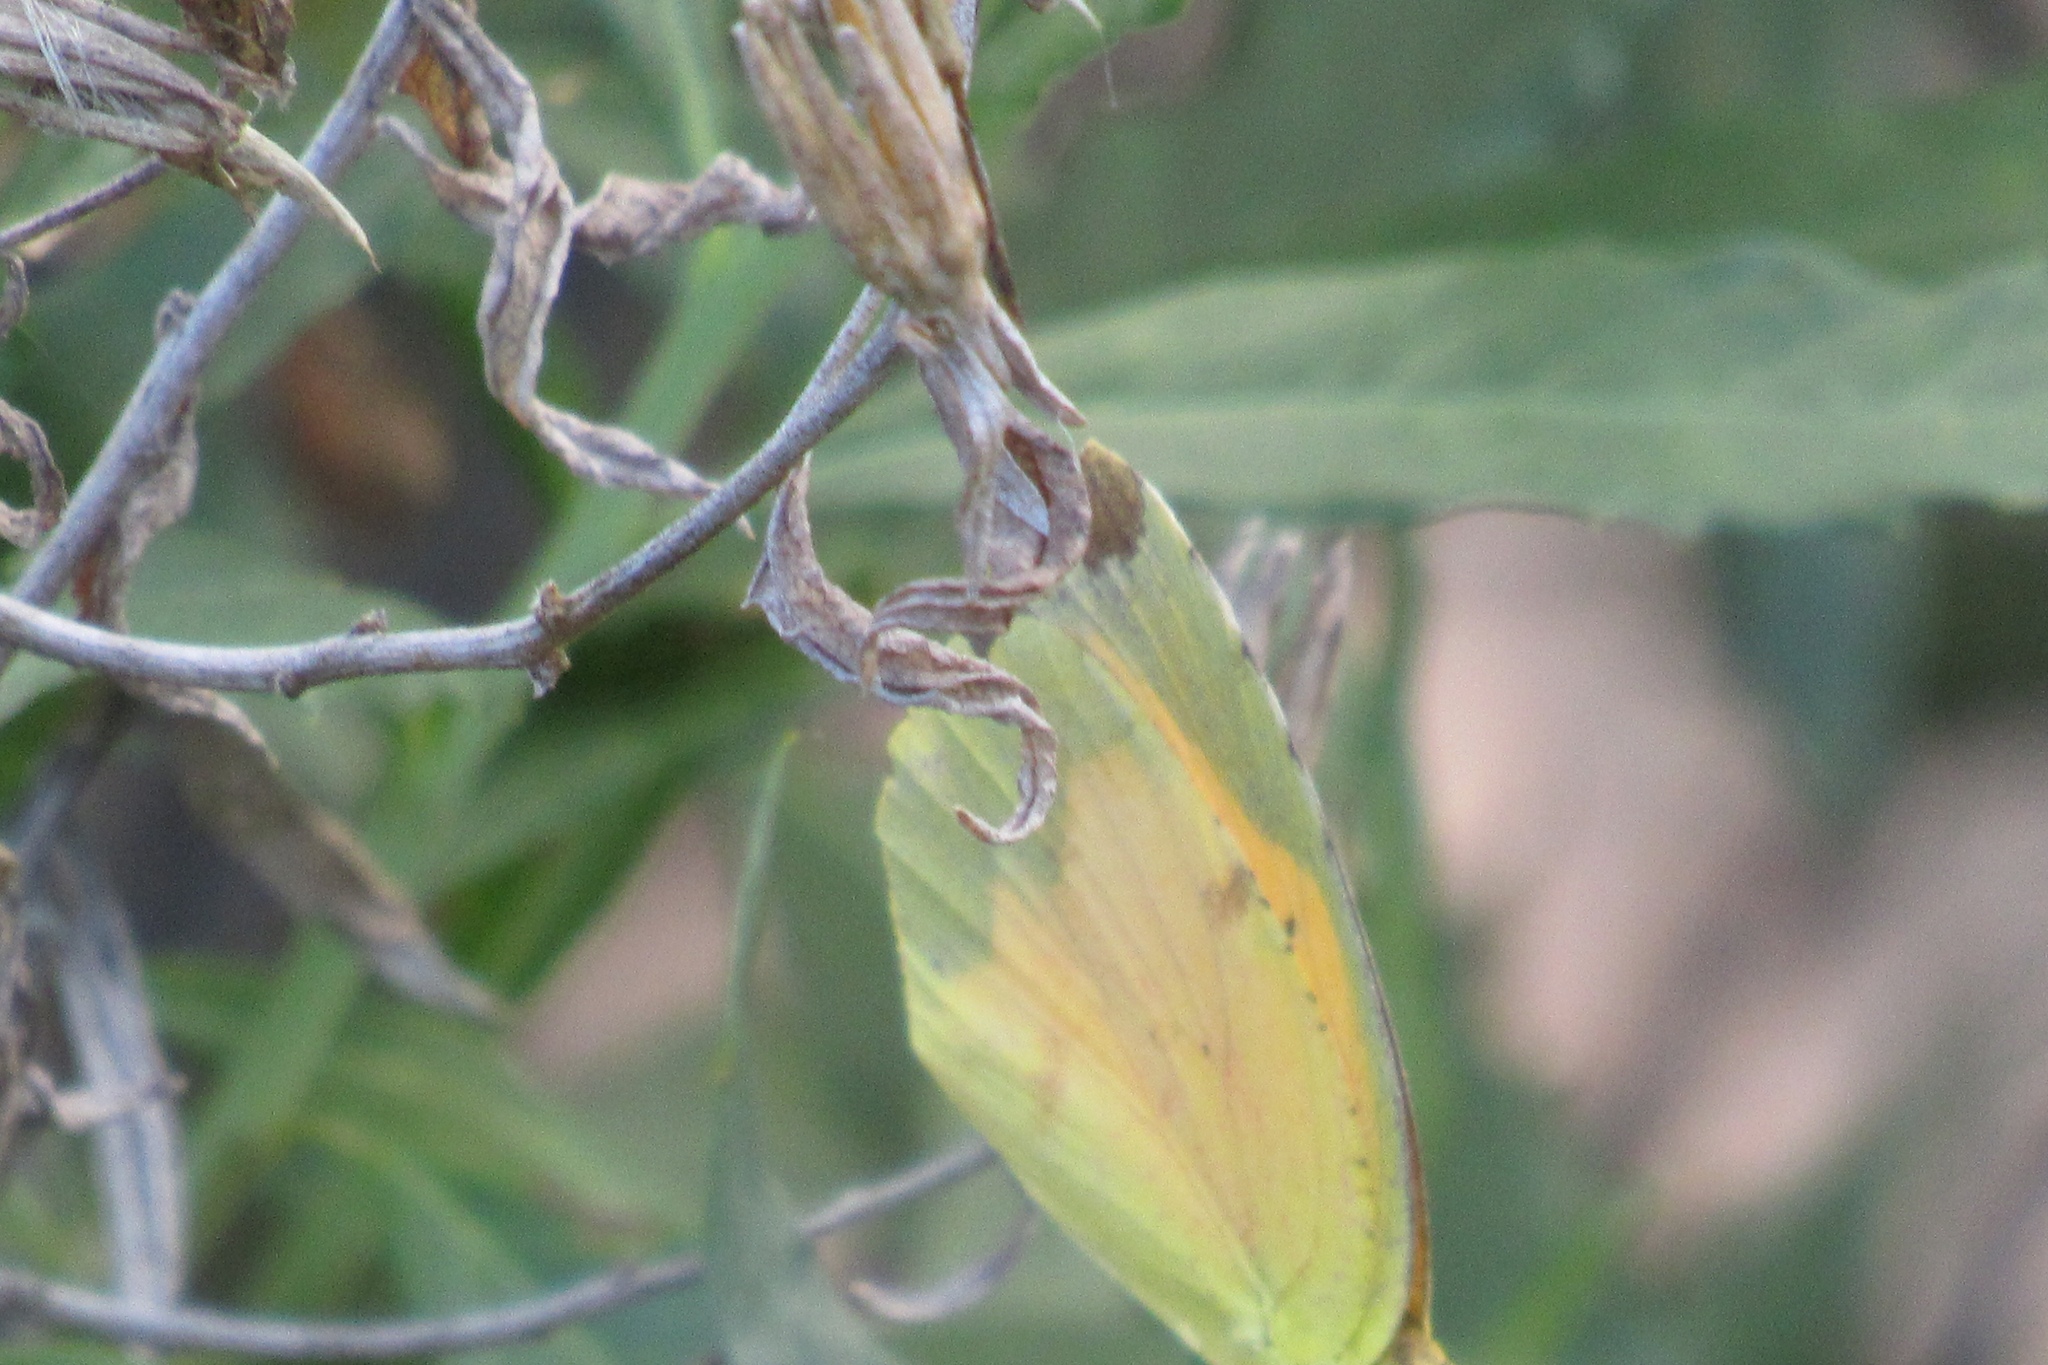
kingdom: Animalia
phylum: Arthropoda
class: Insecta
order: Lepidoptera
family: Pieridae
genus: Abaeis
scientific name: Abaeis nicippe
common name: Sleepy orange
